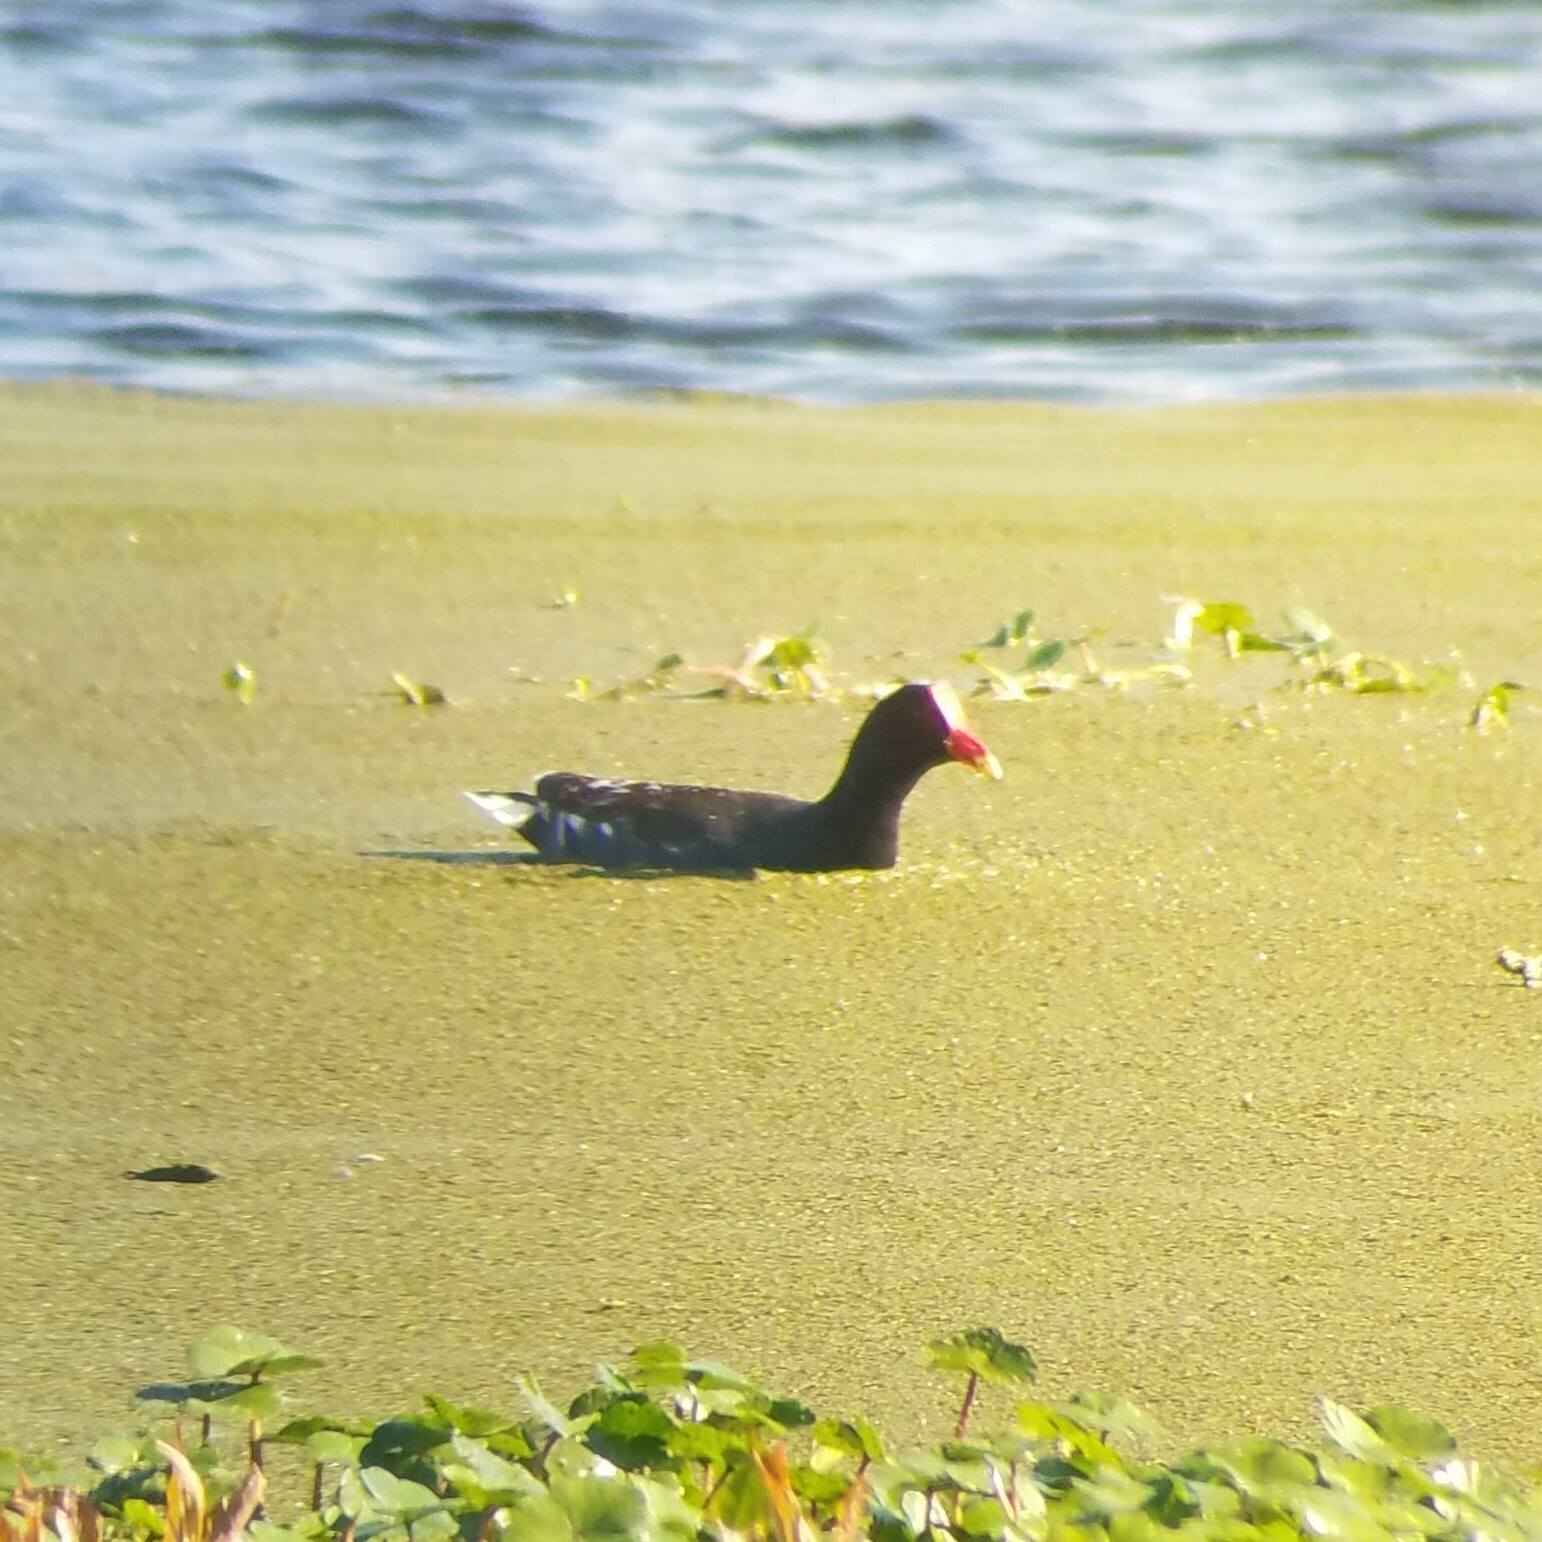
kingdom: Animalia
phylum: Chordata
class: Aves
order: Gruiformes
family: Rallidae
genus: Gallinula
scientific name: Gallinula chloropus
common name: Common moorhen
